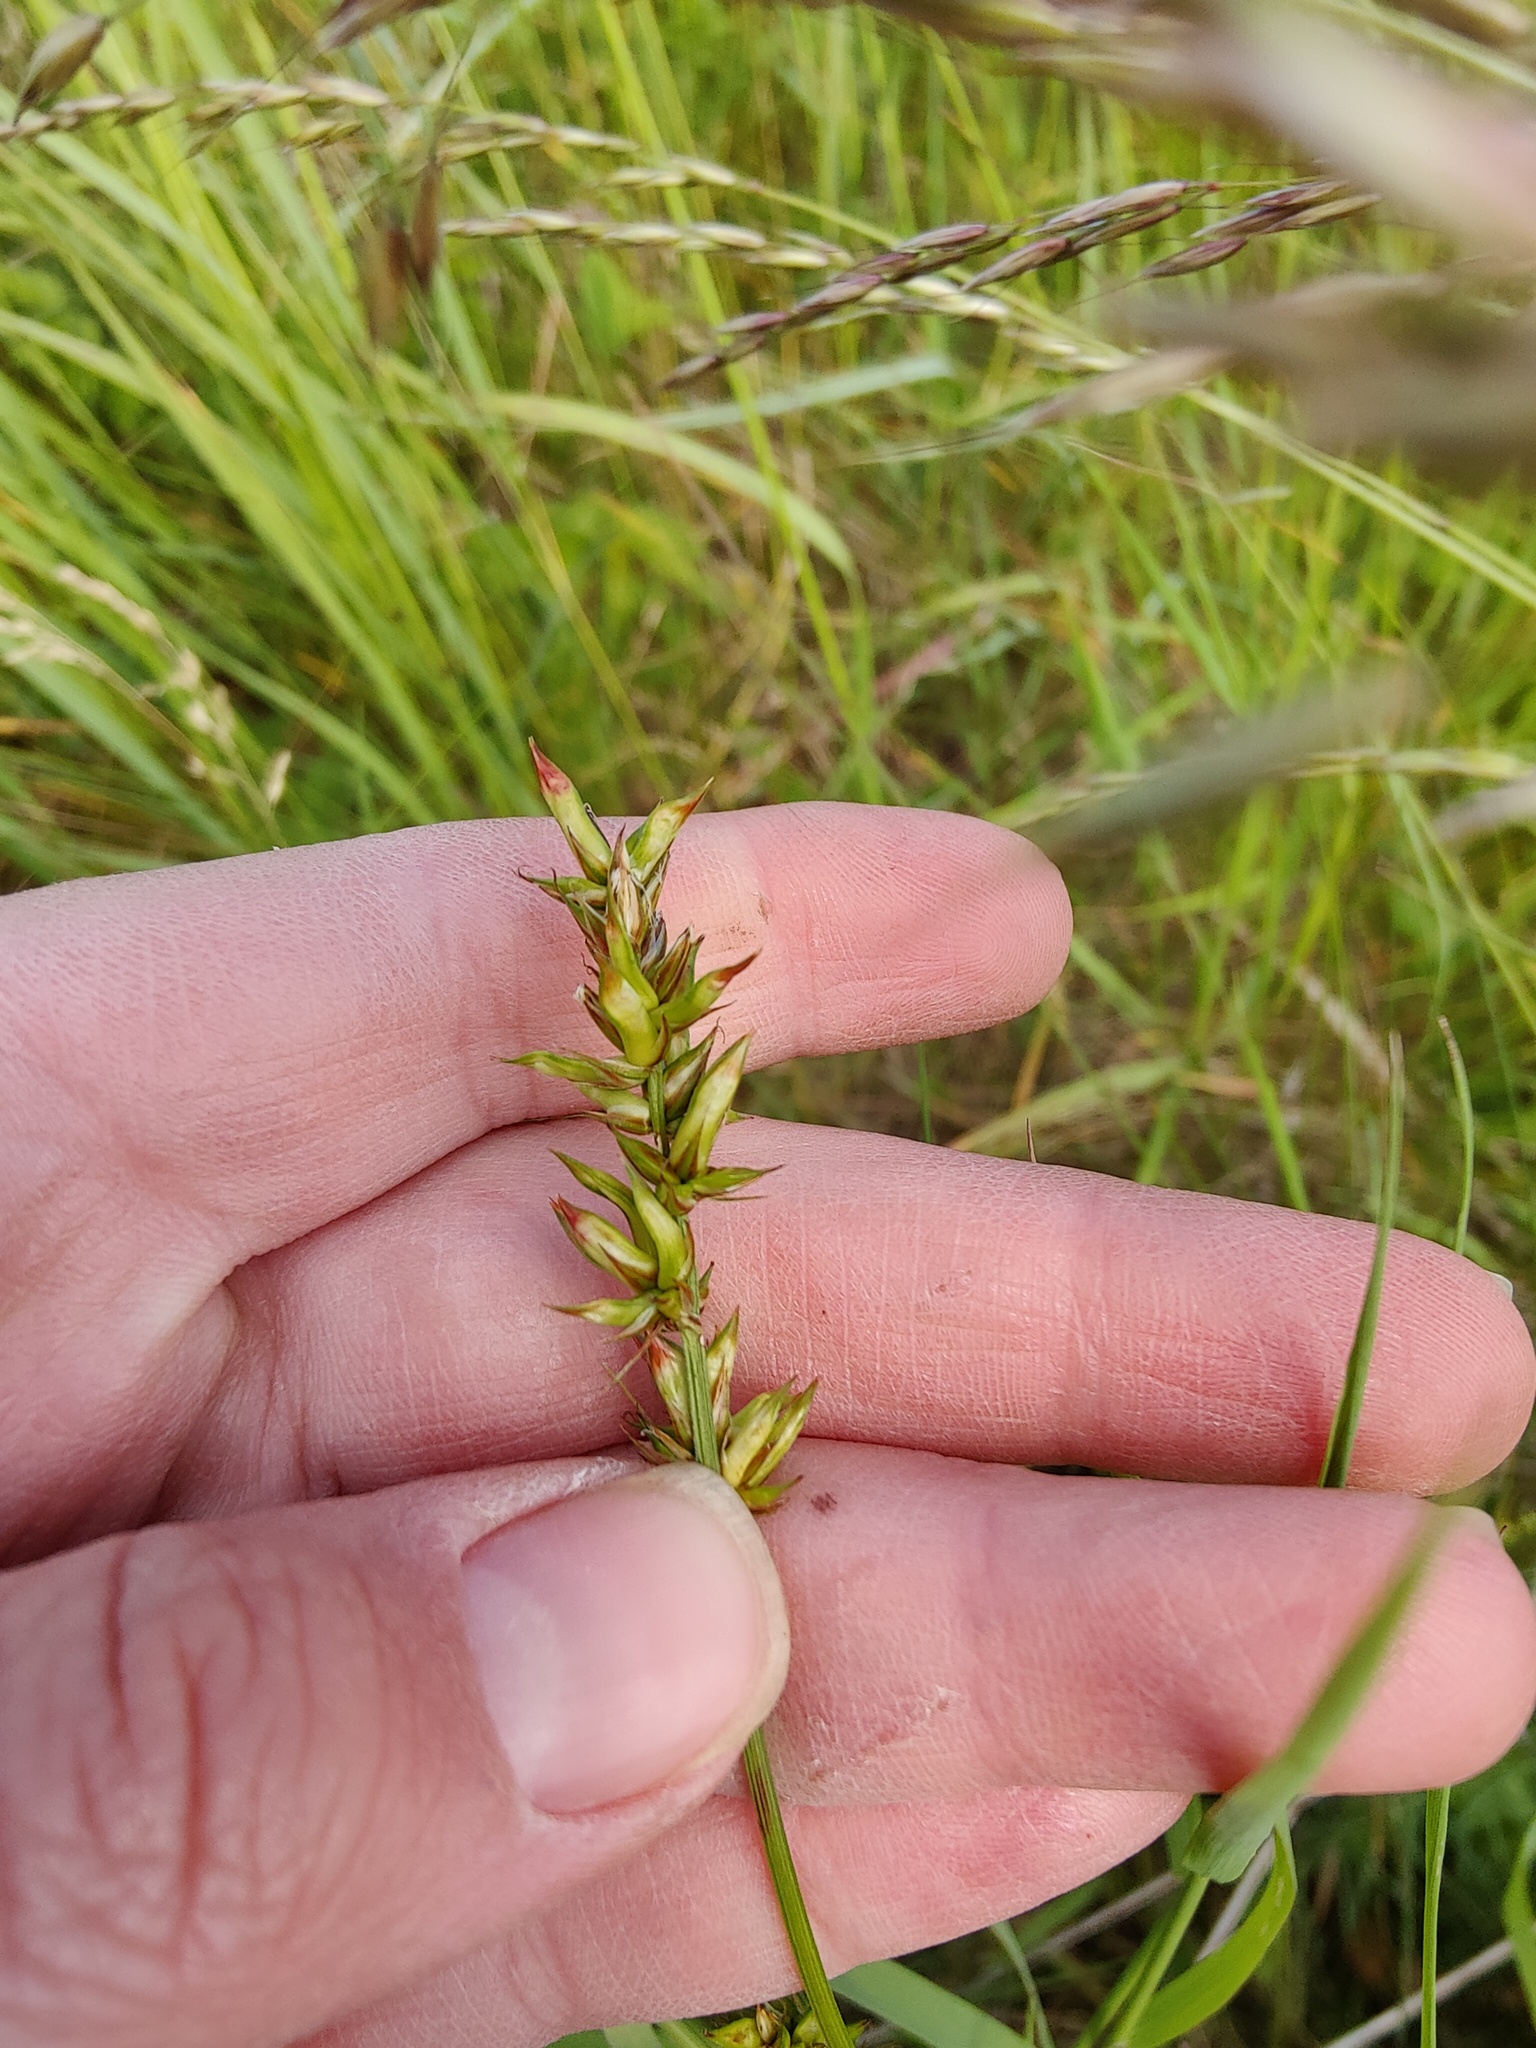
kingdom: Plantae
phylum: Tracheophyta
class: Liliopsida
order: Poales
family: Cyperaceae
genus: Carex
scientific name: Carex spicata
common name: Spiked sedge
